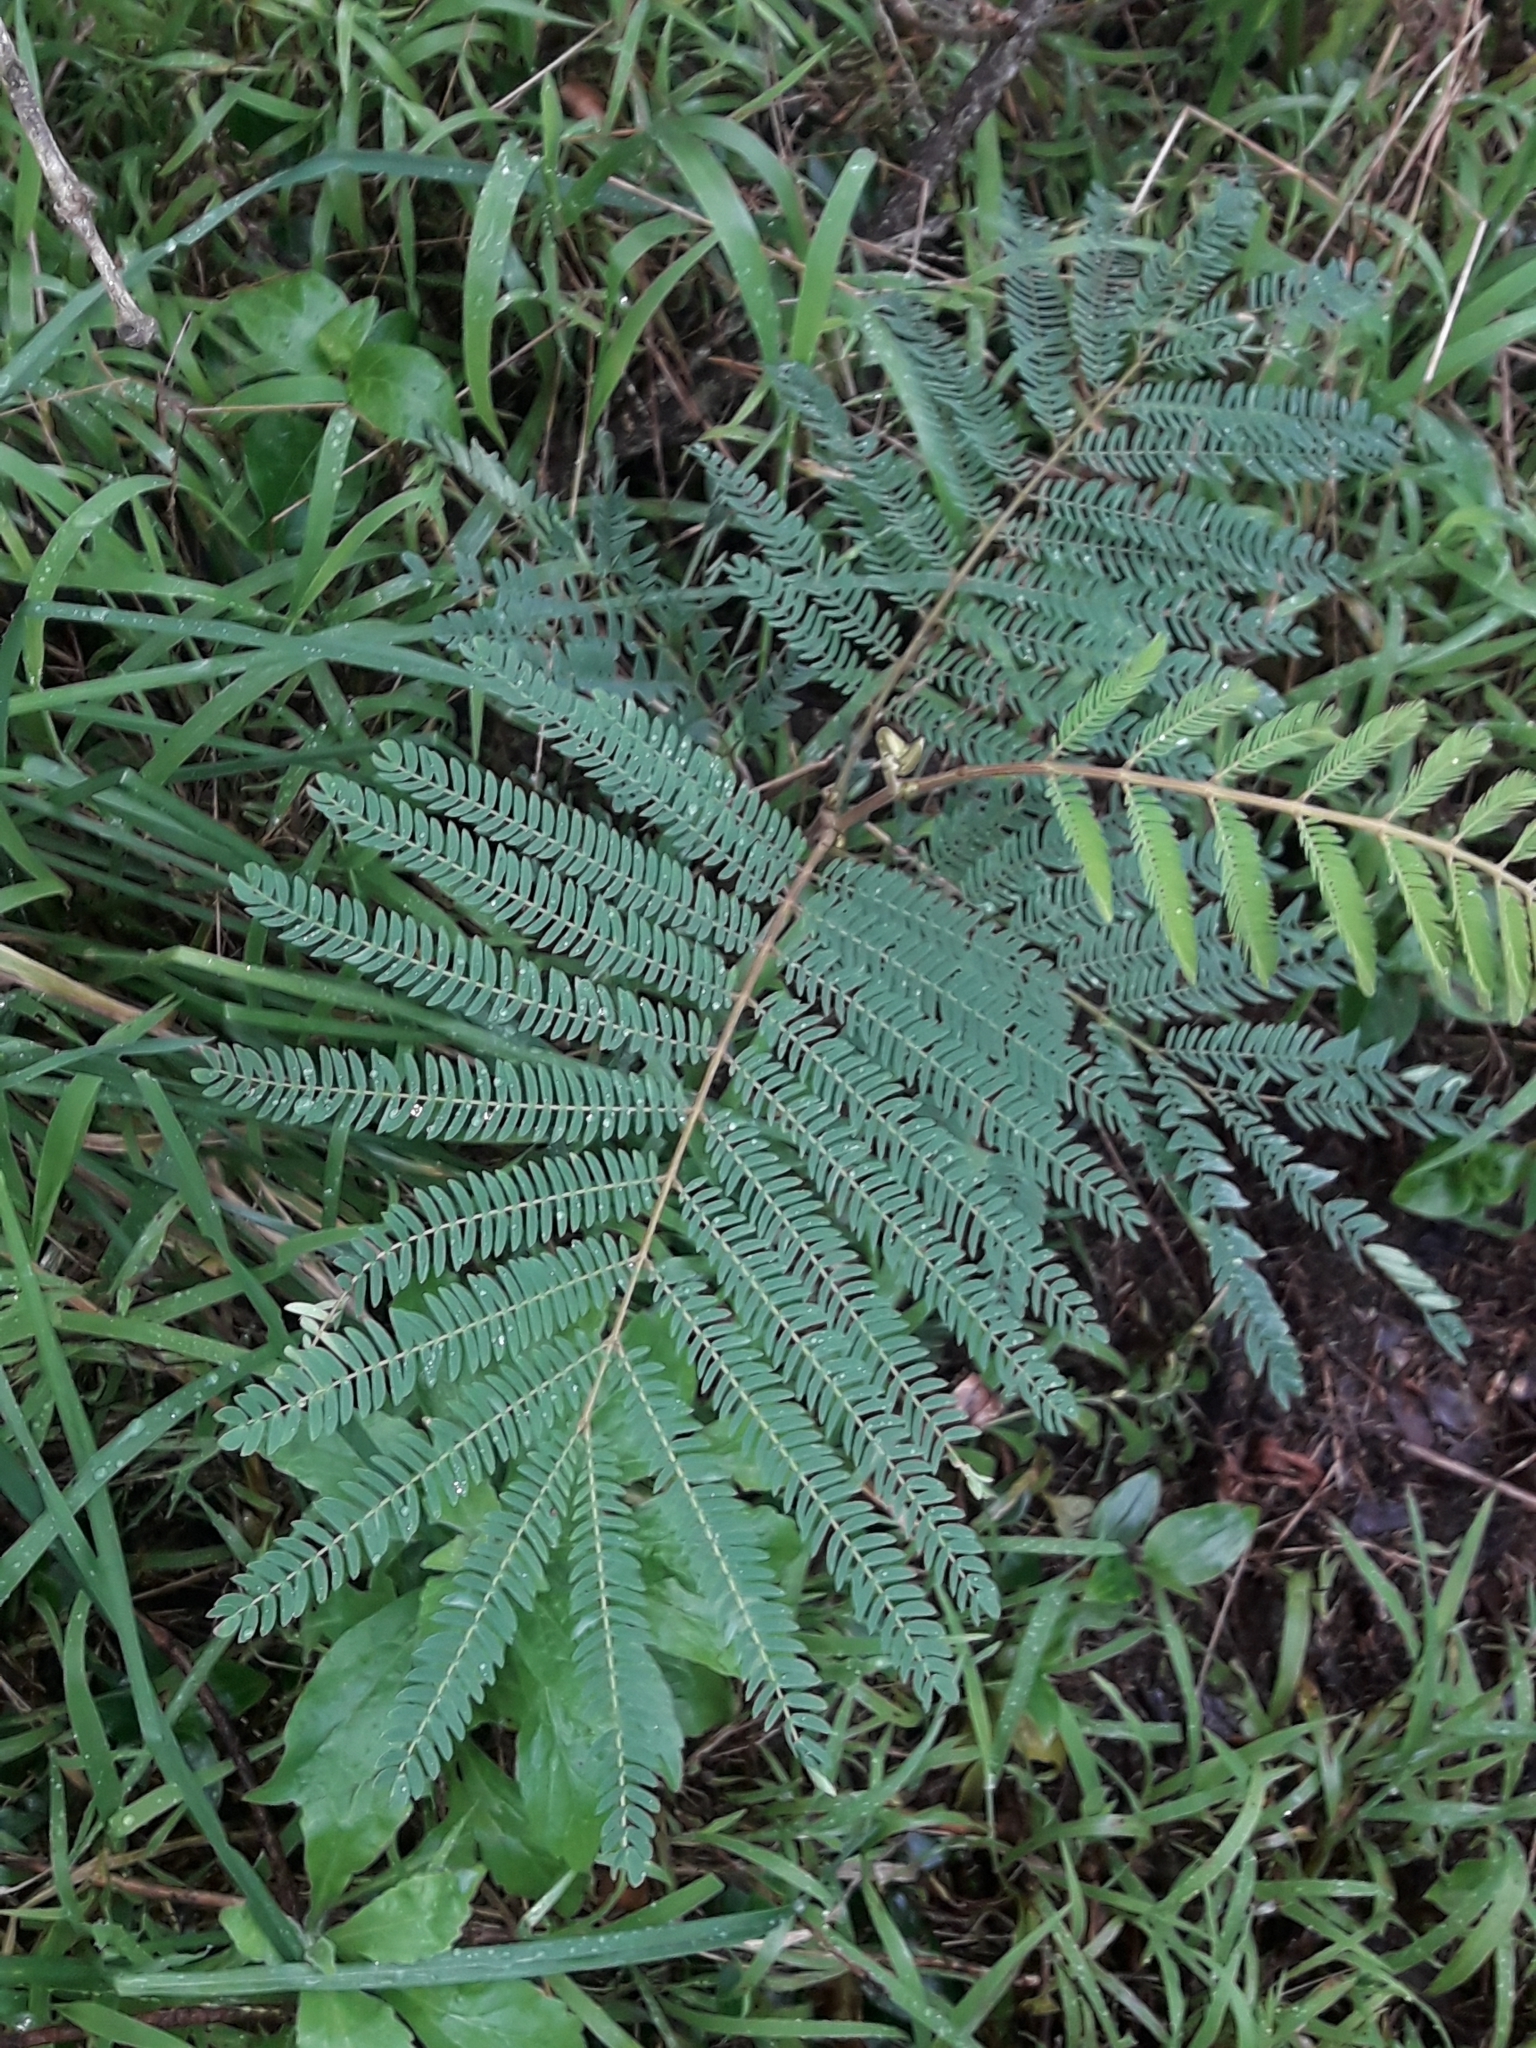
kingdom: Plantae
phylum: Tracheophyta
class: Magnoliopsida
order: Fabales
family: Fabaceae
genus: Paraserianthes
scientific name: Paraserianthes lophantha
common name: Plume albizia
